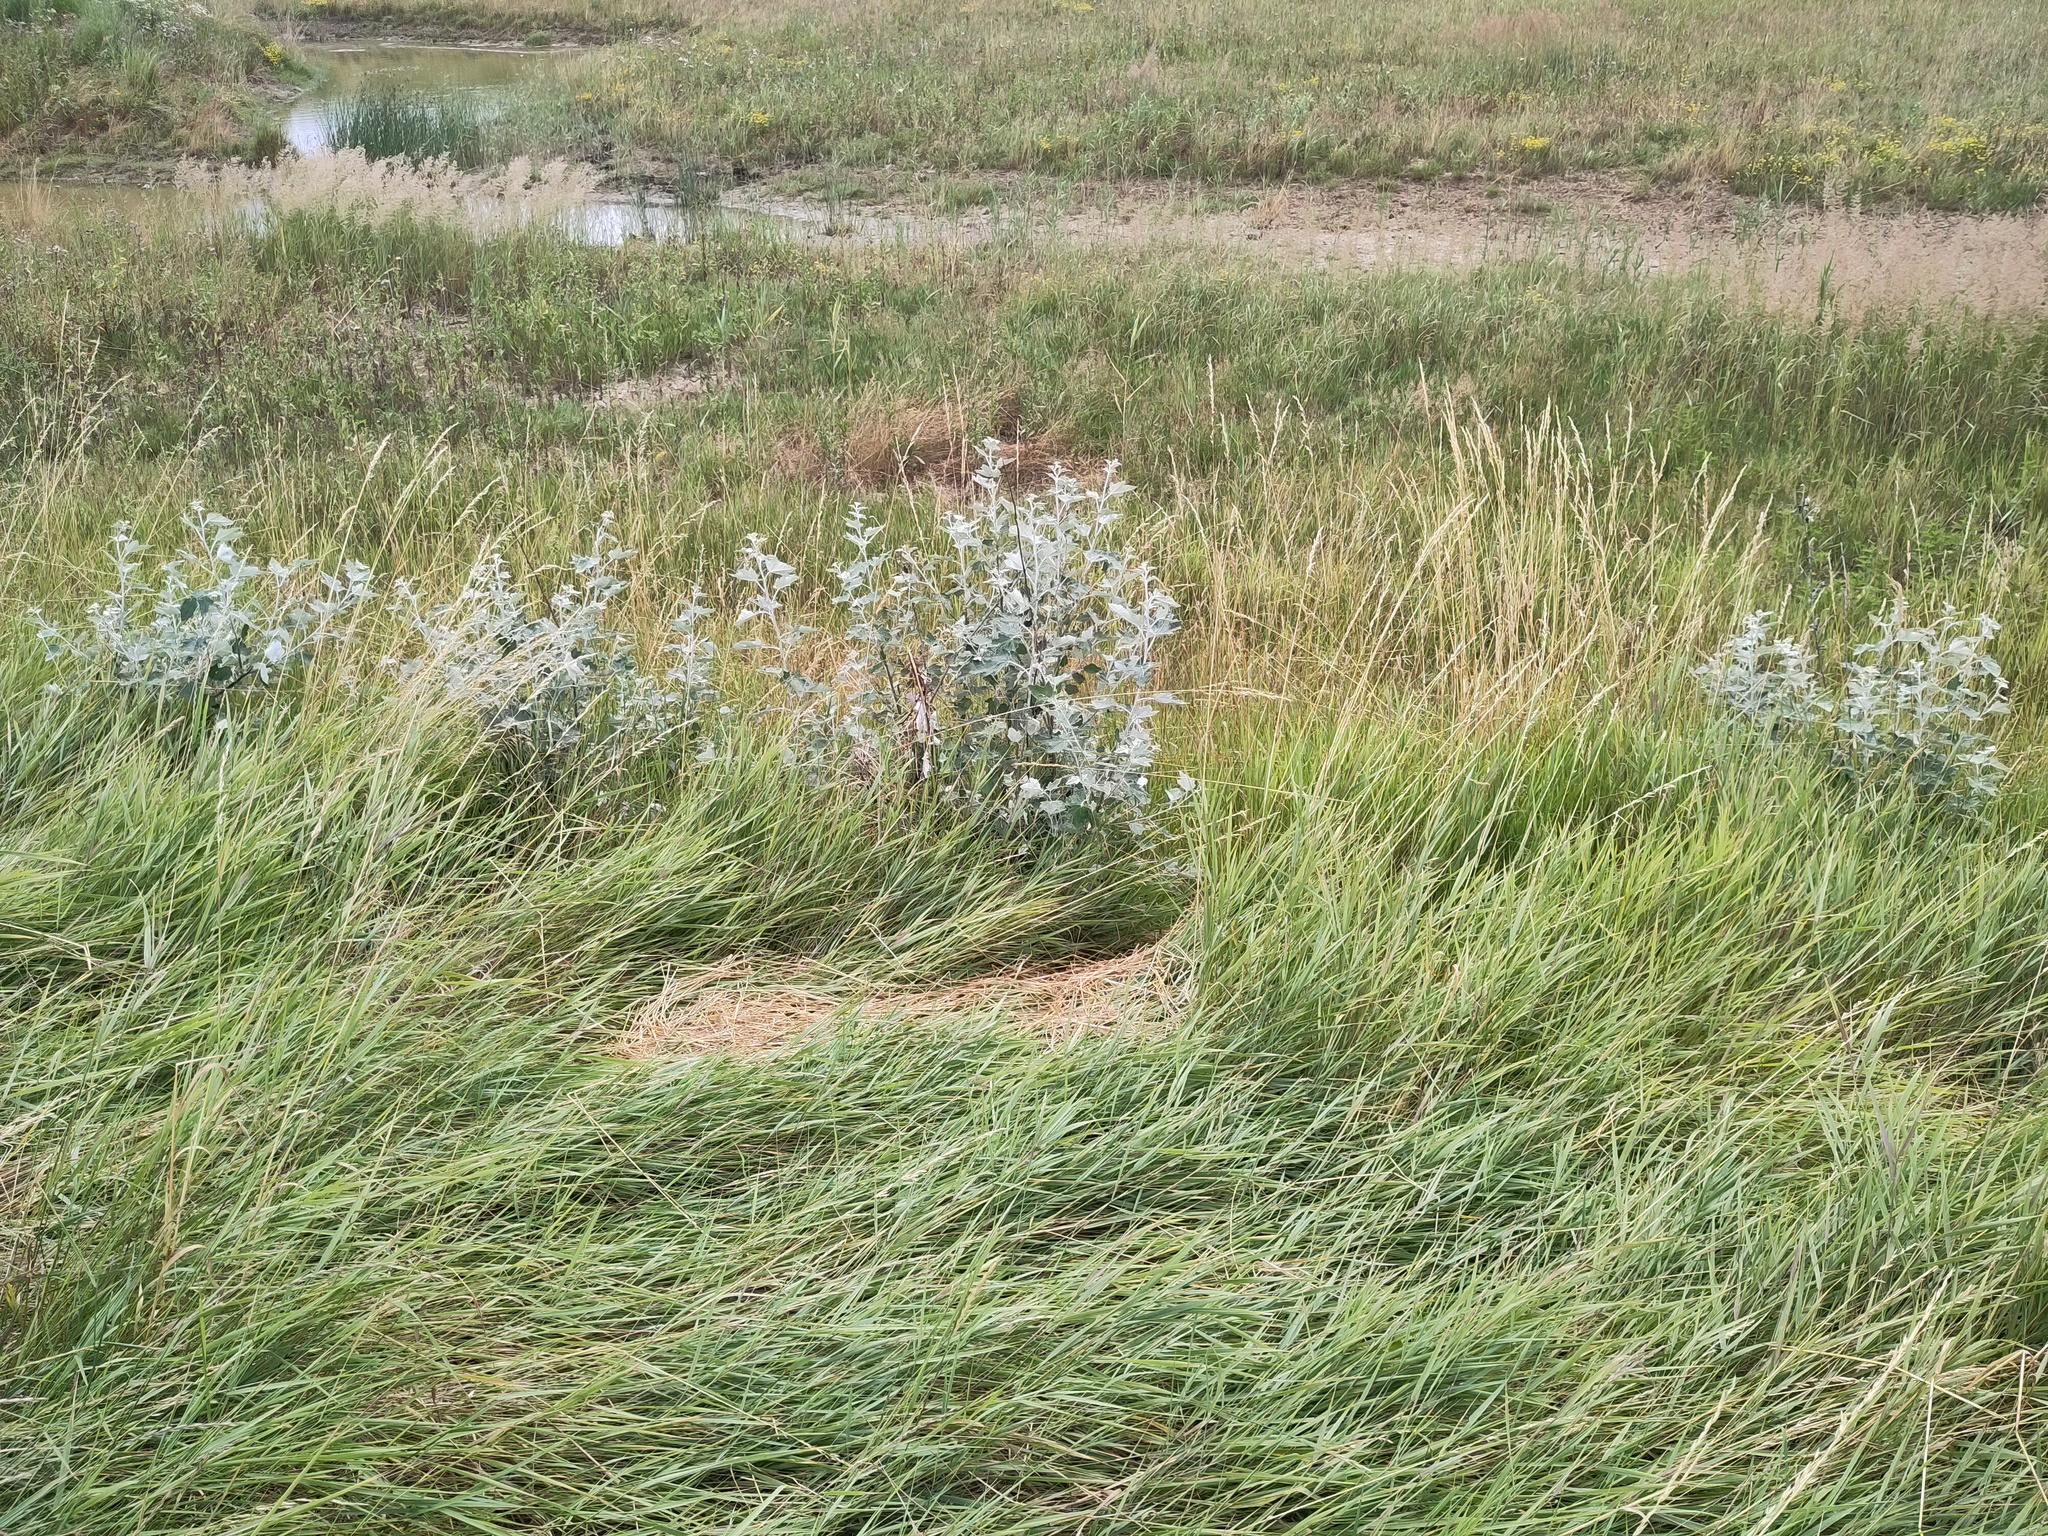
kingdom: Plantae
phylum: Tracheophyta
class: Magnoliopsida
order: Malpighiales
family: Salicaceae
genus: Populus
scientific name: Populus alba
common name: White poplar
